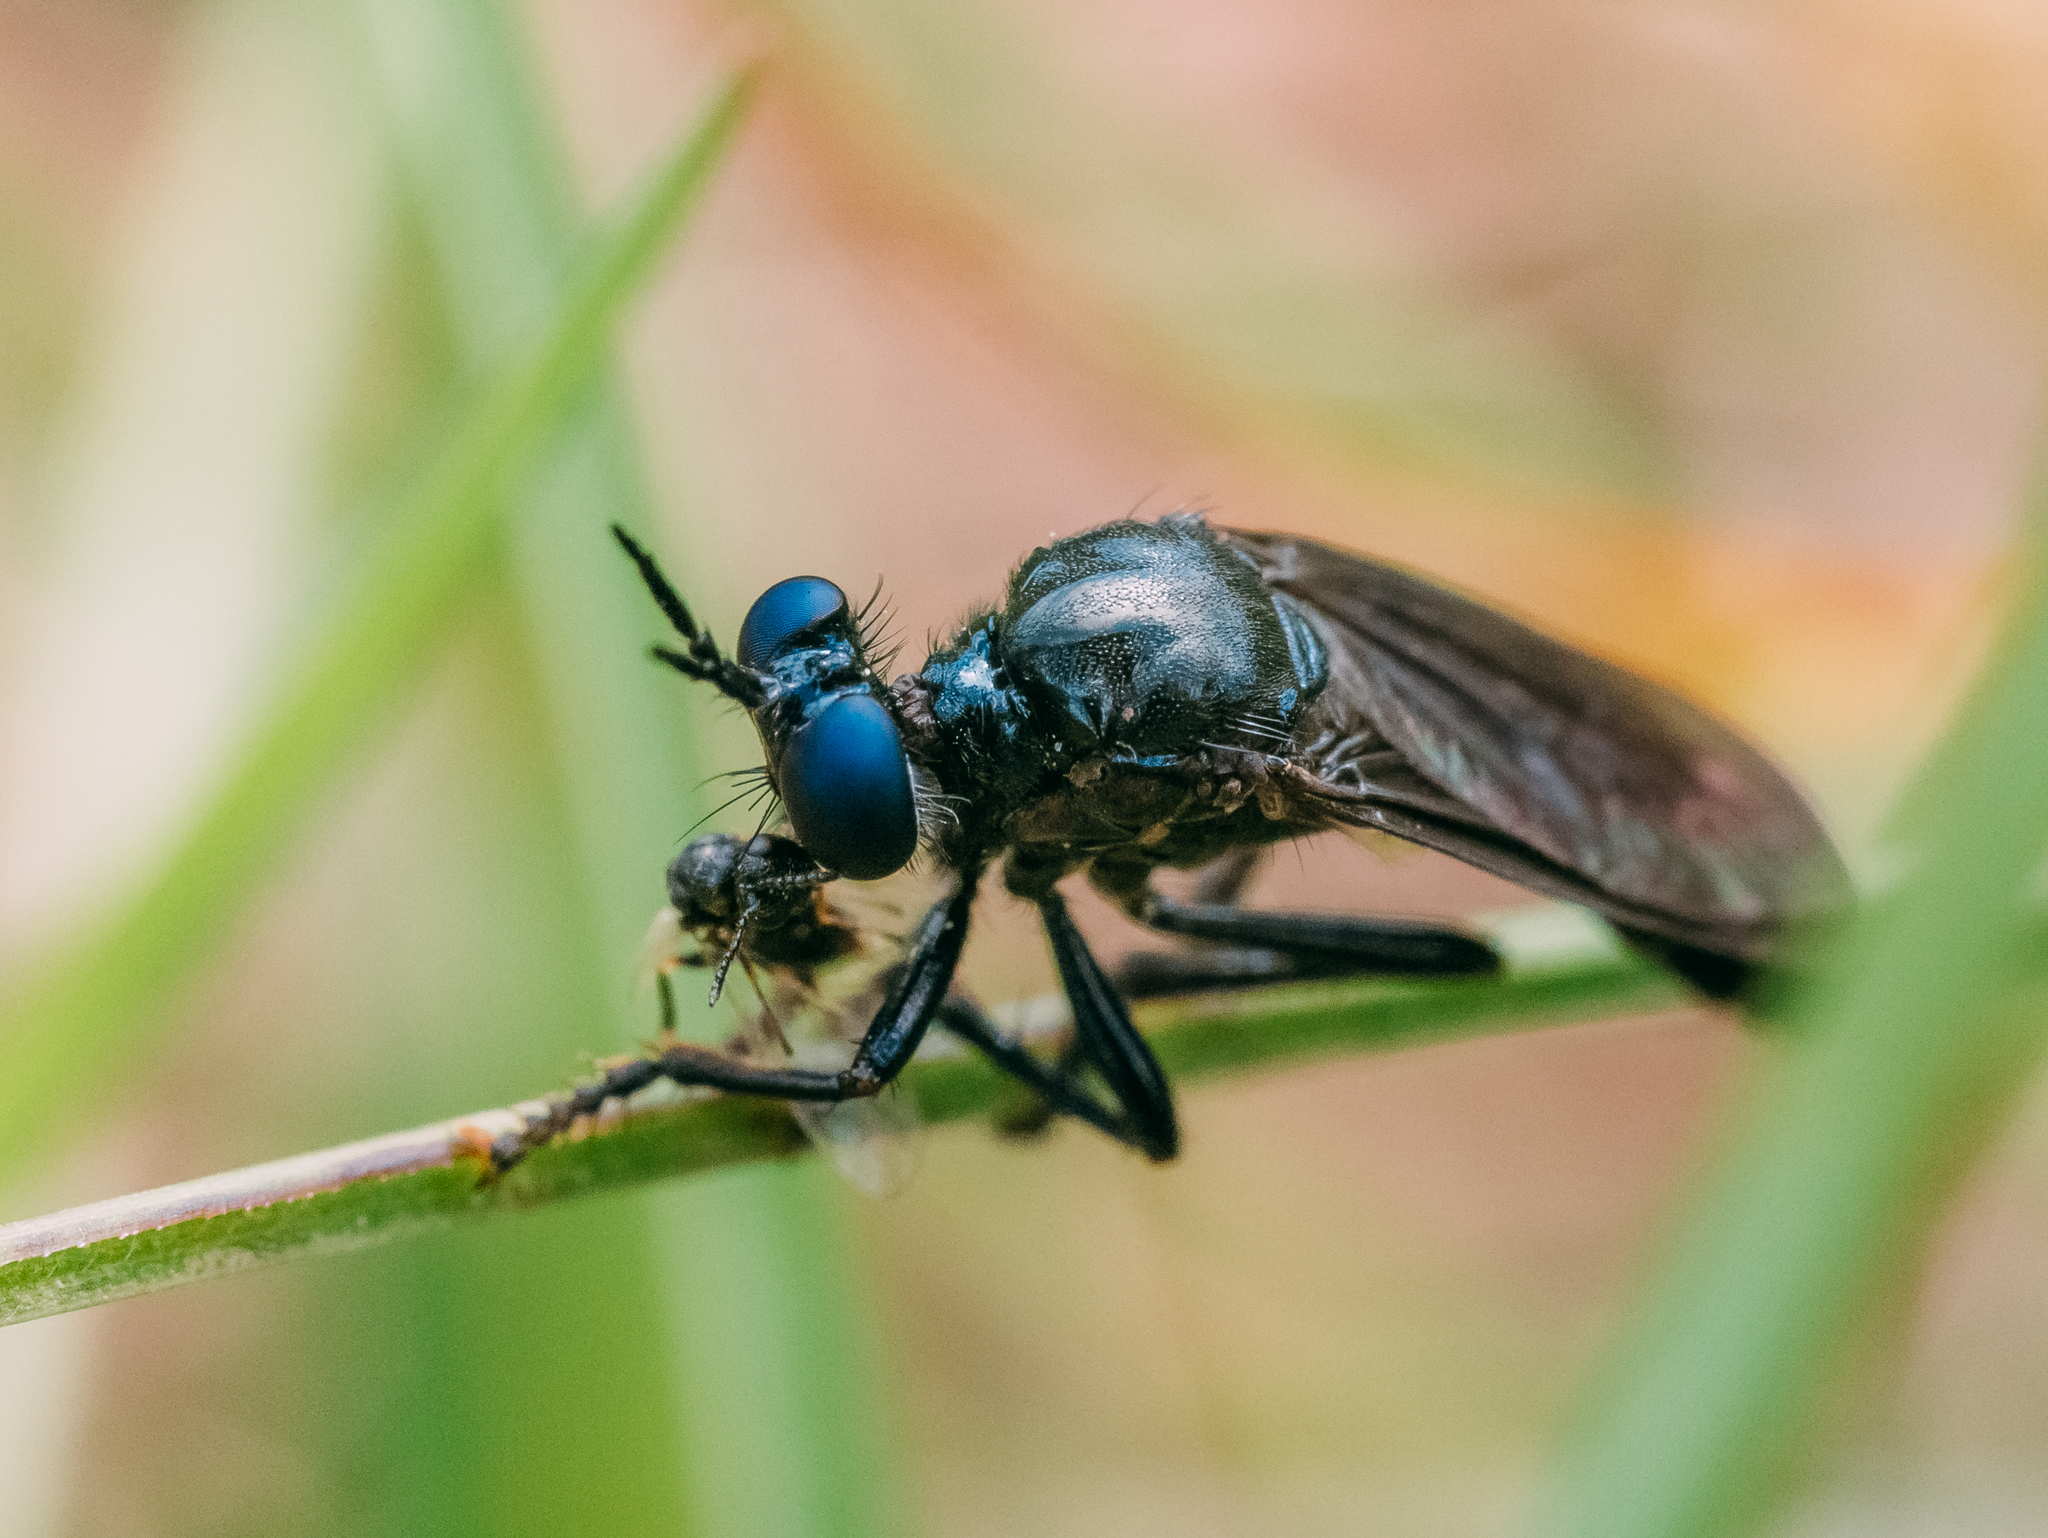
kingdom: Animalia
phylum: Arthropoda
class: Insecta
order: Diptera
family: Asilidae
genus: Dioctria
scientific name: Dioctria atricapilla
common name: Violet black-legged
